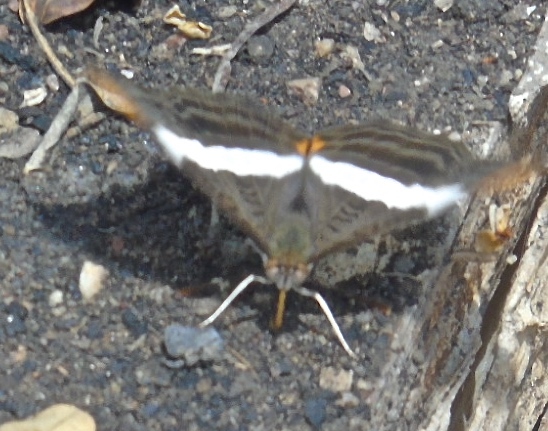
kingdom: Animalia
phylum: Arthropoda
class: Insecta
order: Lepidoptera
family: Nymphalidae
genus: Limenitis
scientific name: Limenitis
